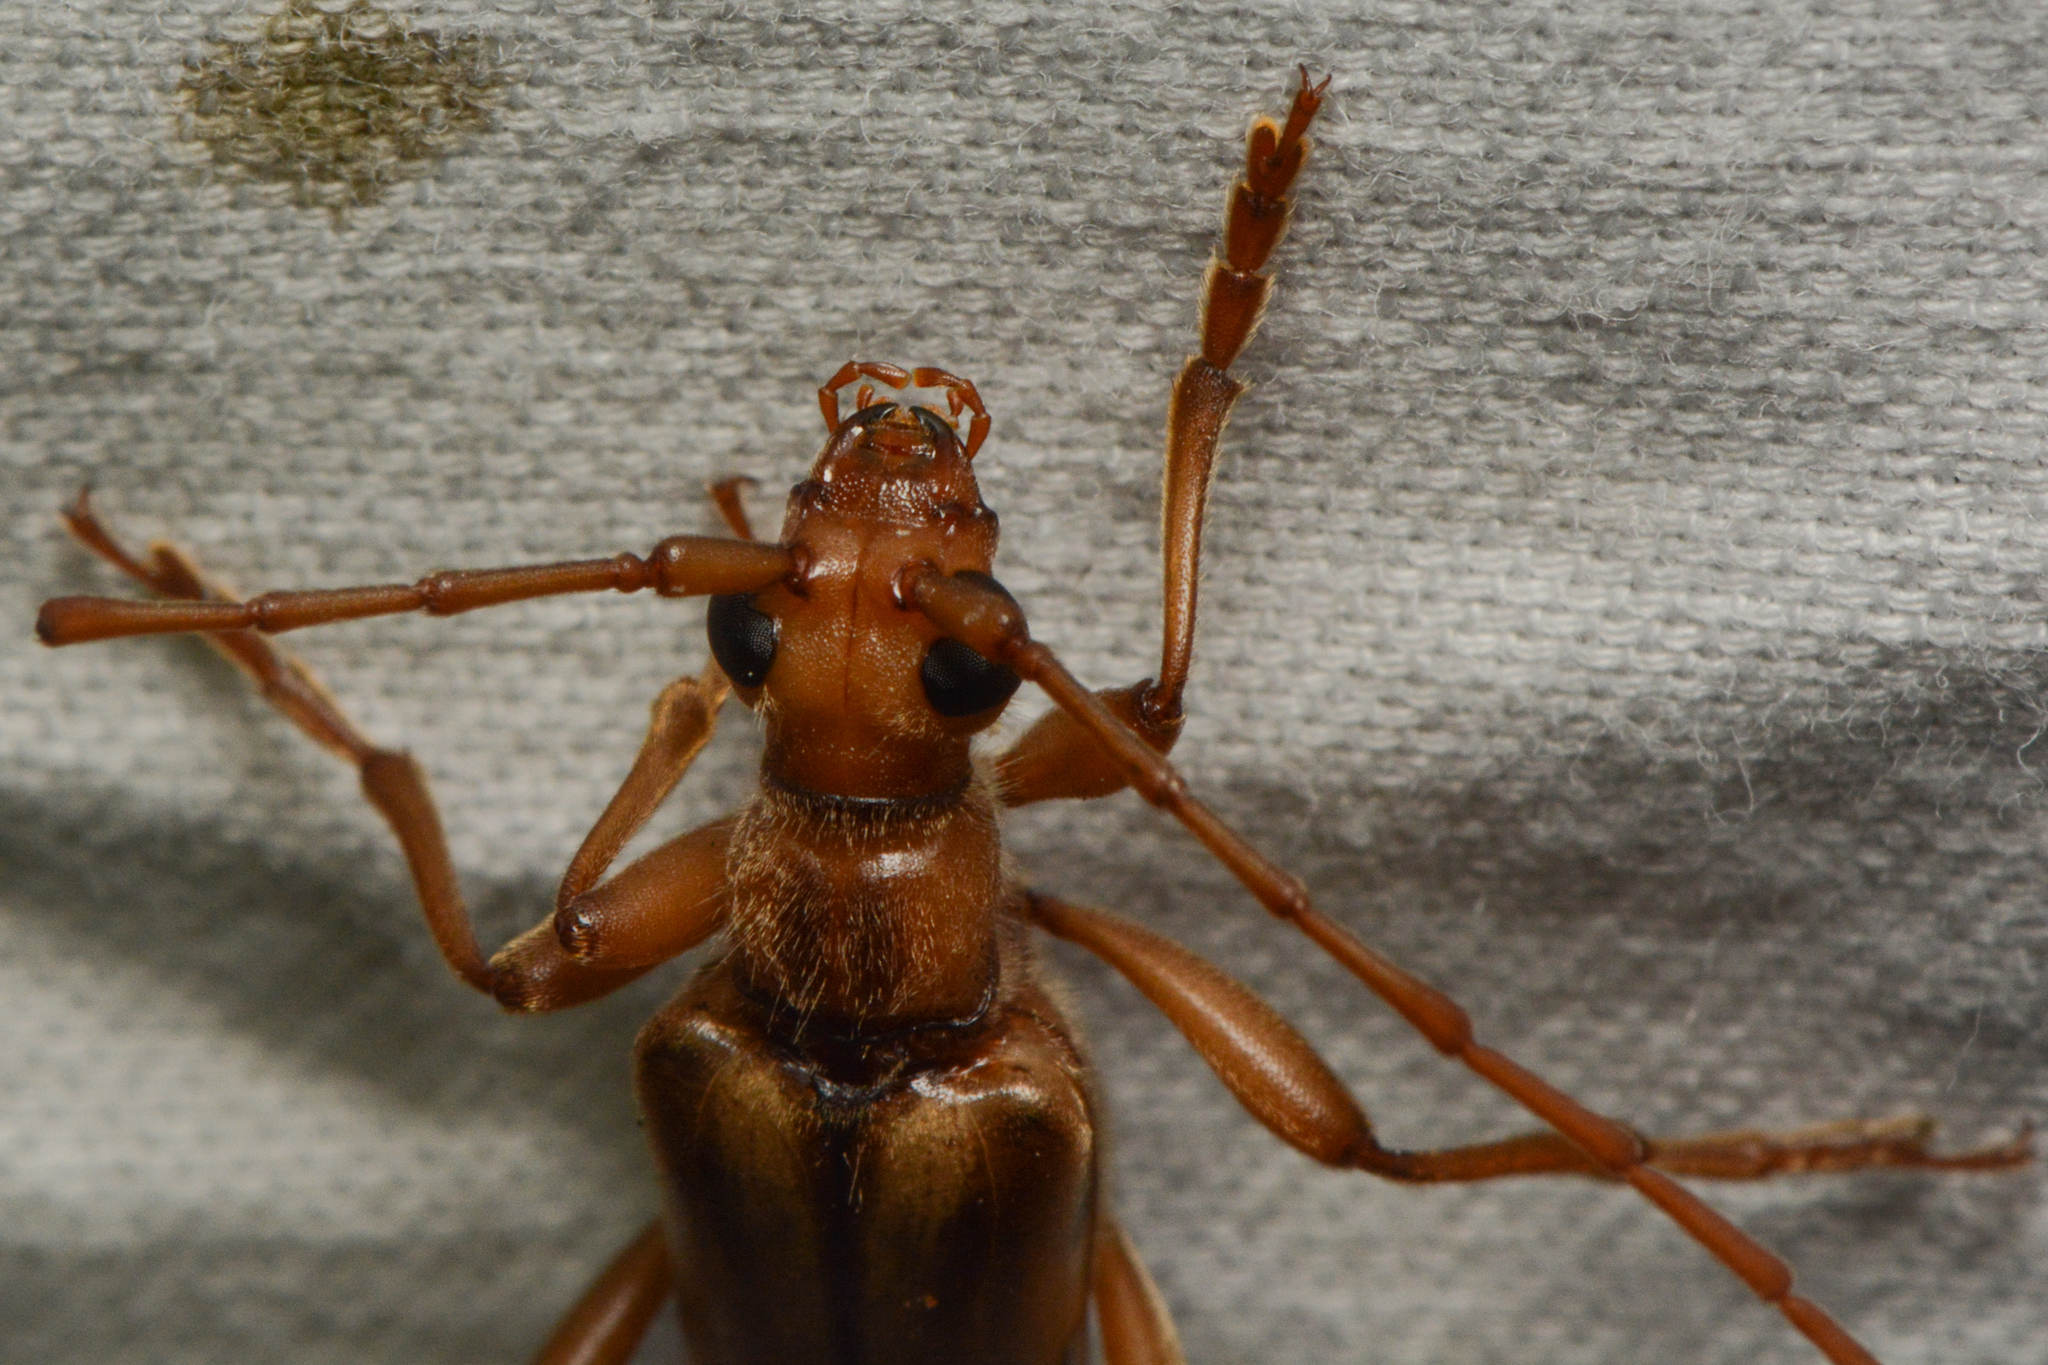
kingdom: Animalia
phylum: Arthropoda
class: Insecta
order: Coleoptera
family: Cerambycidae
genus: Ortholeptura
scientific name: Ortholeptura valida
